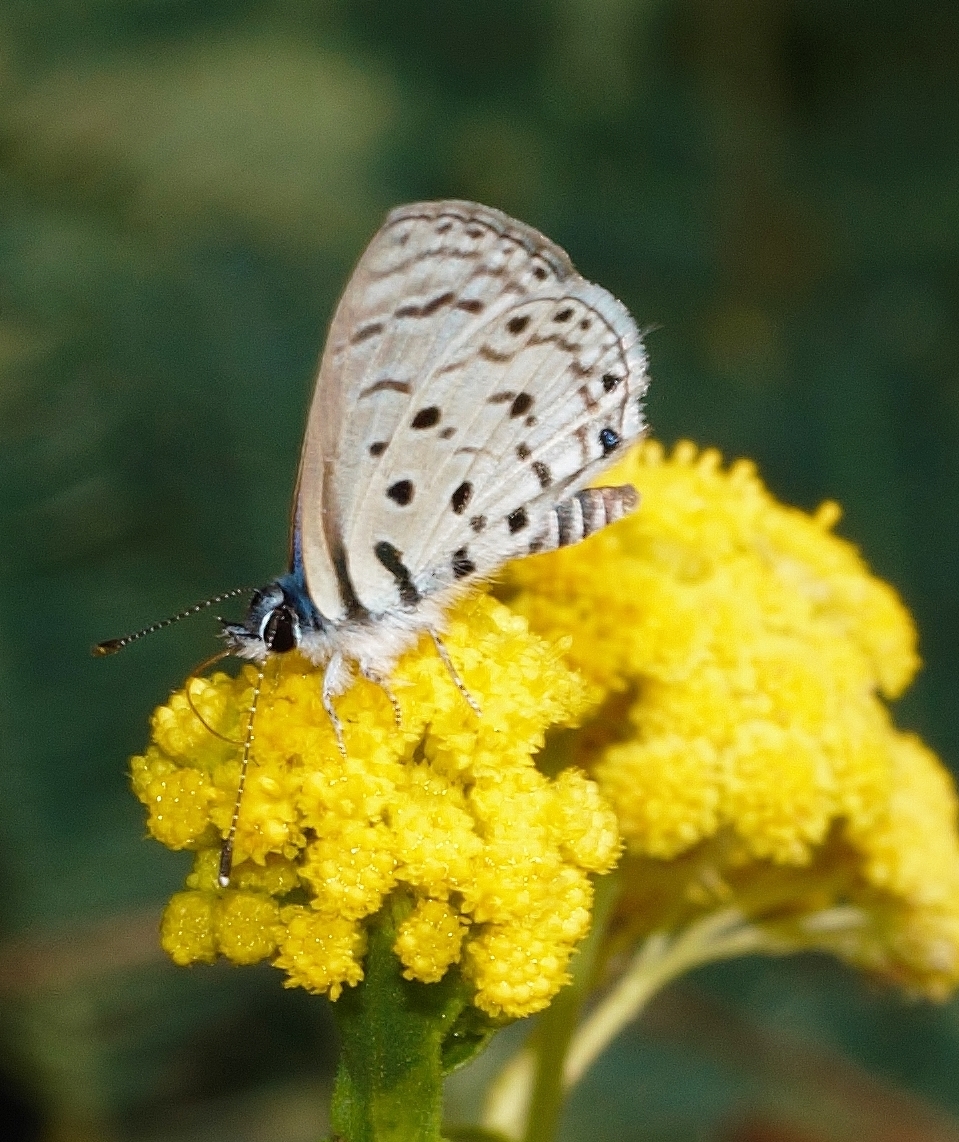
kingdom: Animalia
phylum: Arthropoda
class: Insecta
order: Lepidoptera
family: Lycaenidae
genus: Azanus
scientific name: Azanus moriqua
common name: Thorn-tree babul blue
